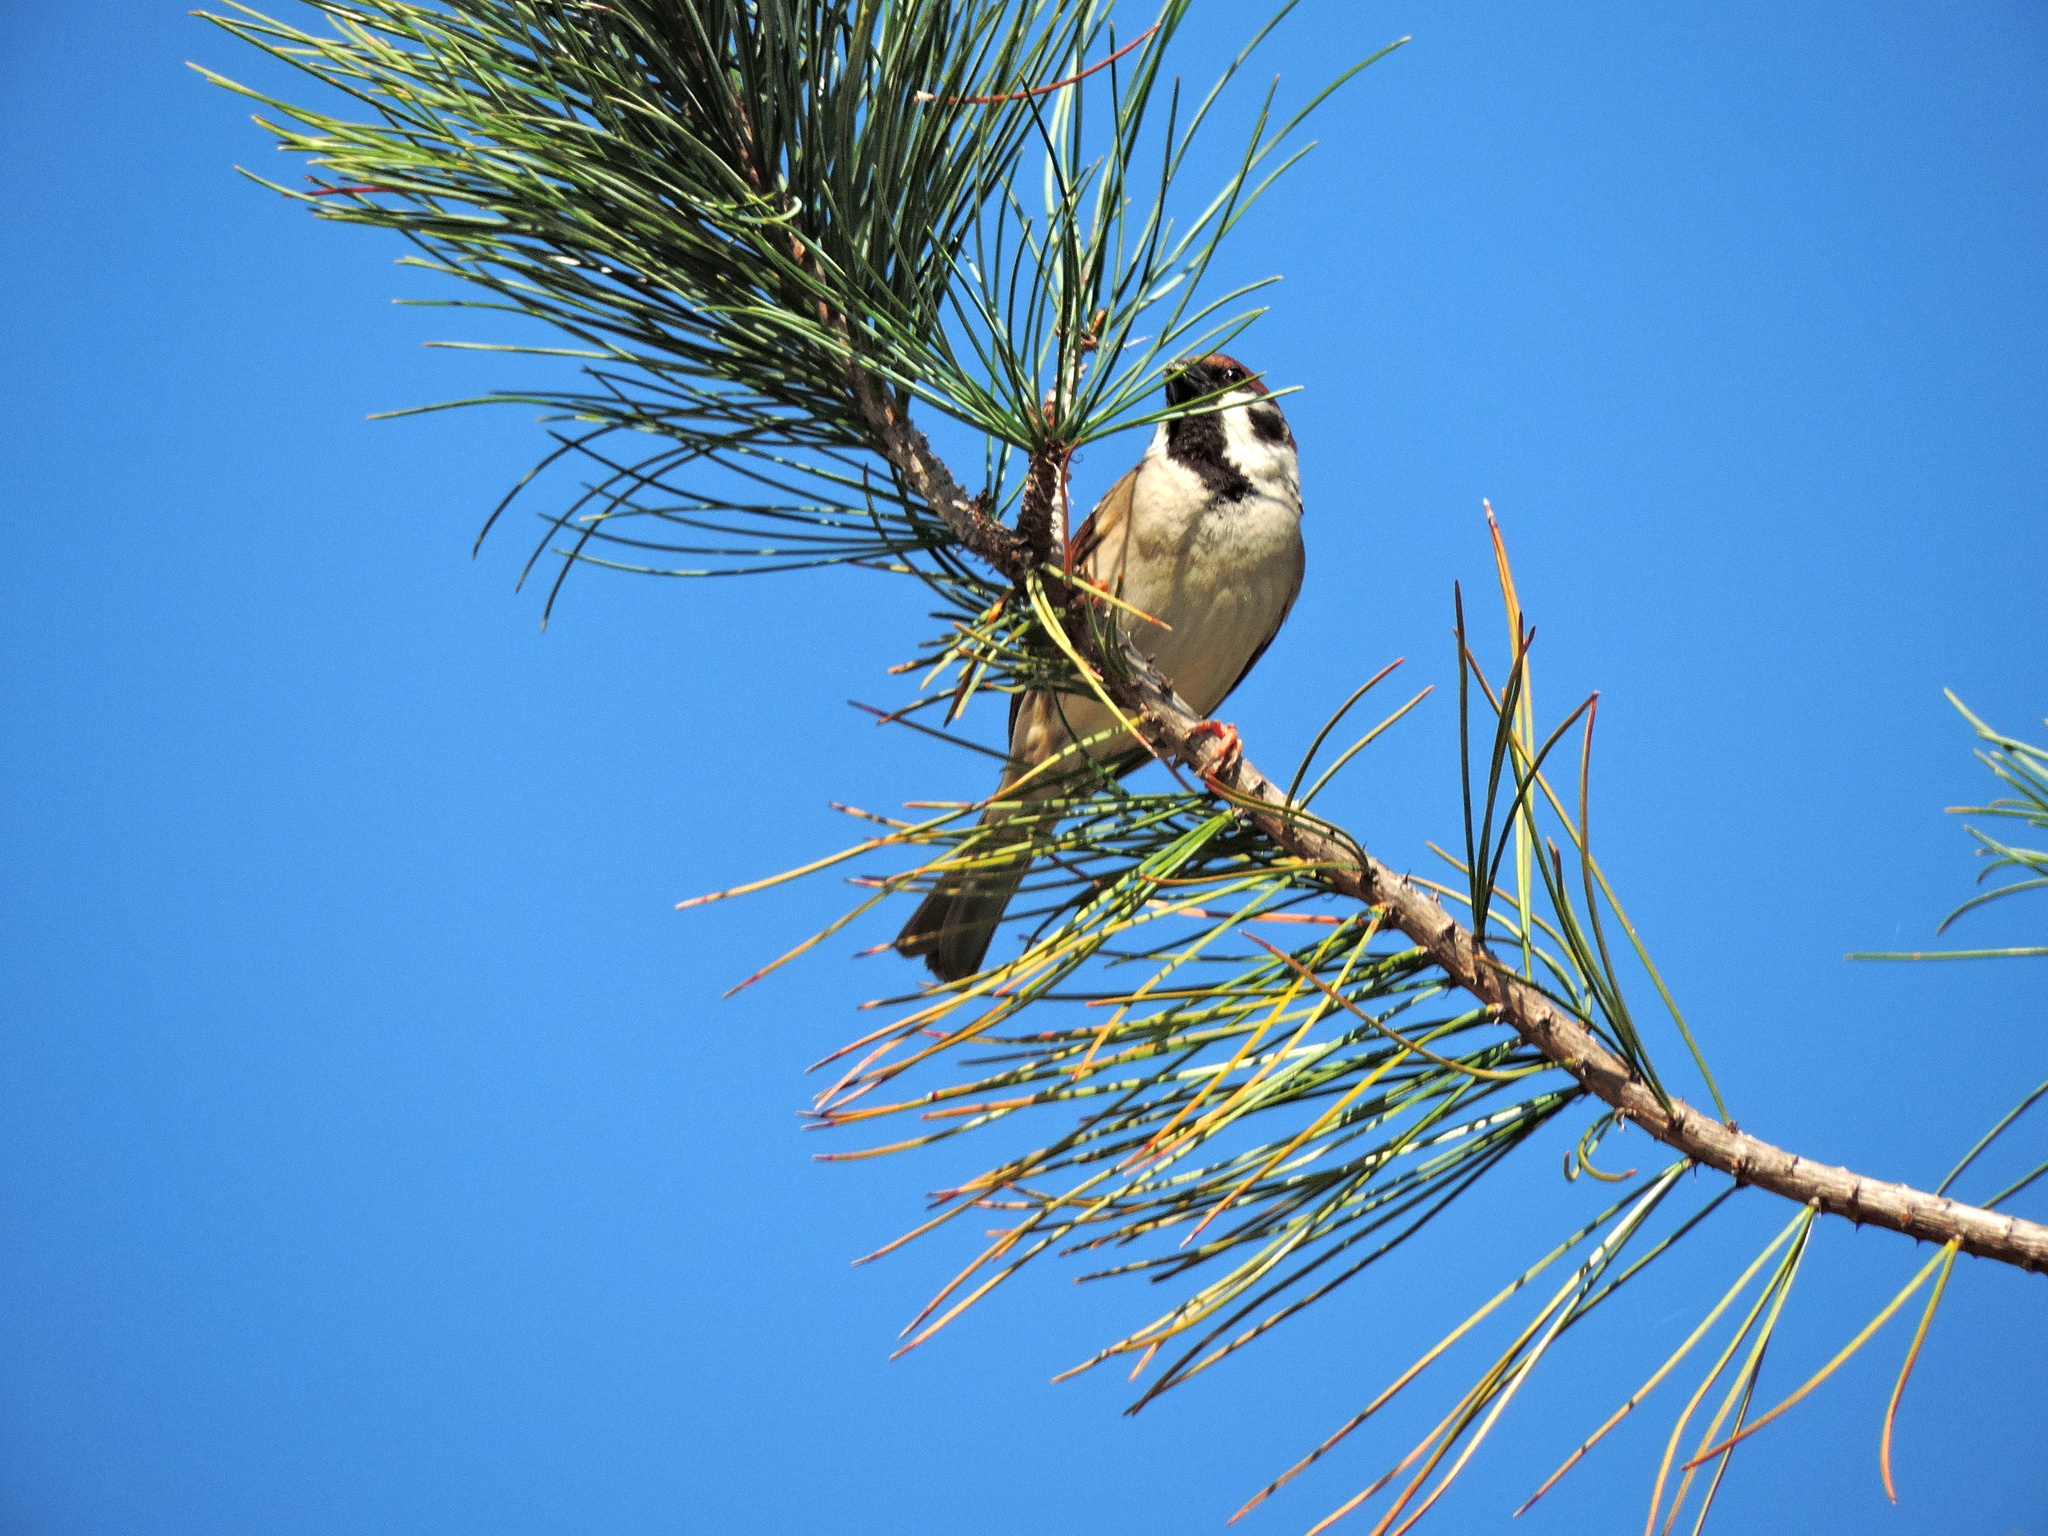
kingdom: Animalia
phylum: Chordata
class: Aves
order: Passeriformes
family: Passeridae
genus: Passer
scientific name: Passer montanus
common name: Eurasian tree sparrow
